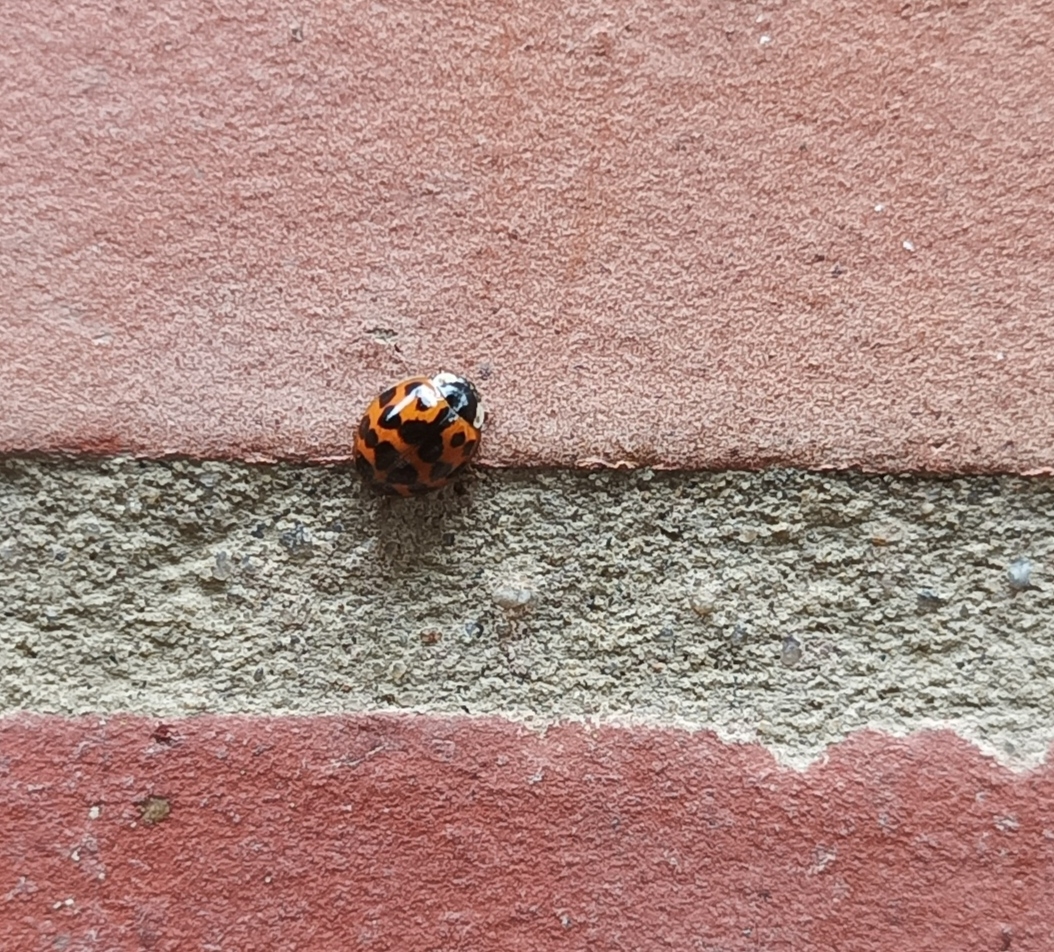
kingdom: Animalia
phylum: Arthropoda
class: Insecta
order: Coleoptera
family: Coccinellidae
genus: Harmonia
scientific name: Harmonia axyridis
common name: Harlequin ladybird
